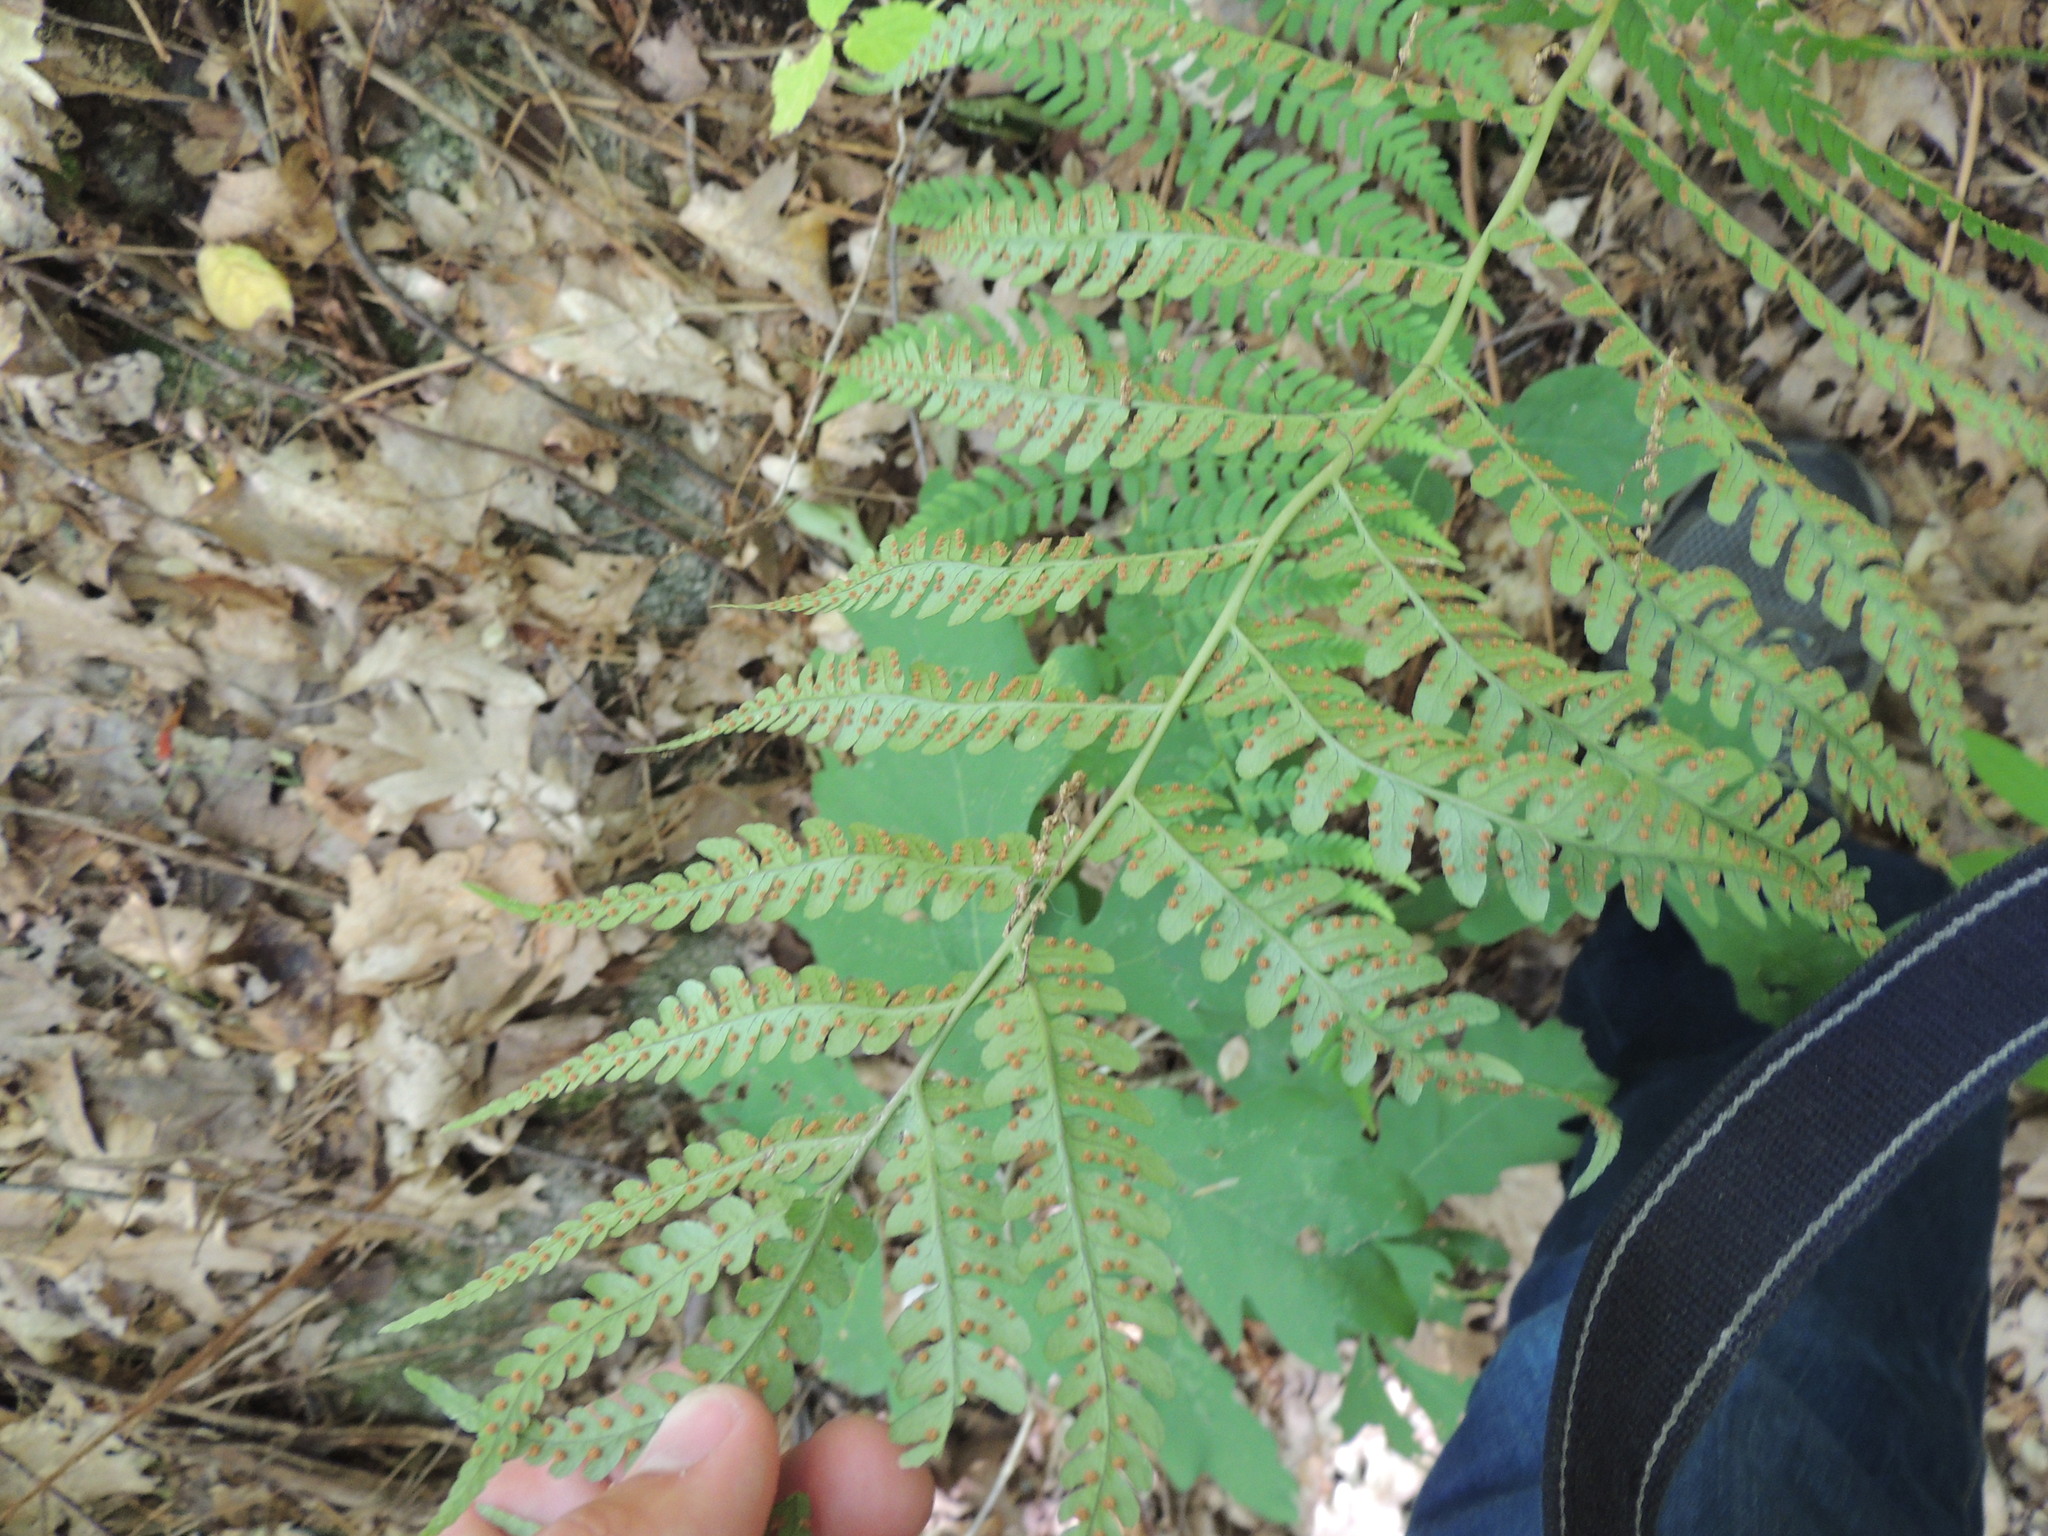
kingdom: Plantae
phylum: Tracheophyta
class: Polypodiopsida
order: Polypodiales
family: Dryopteridaceae
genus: Dryopteris
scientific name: Dryopteris marginalis
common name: Marginal wood fern
